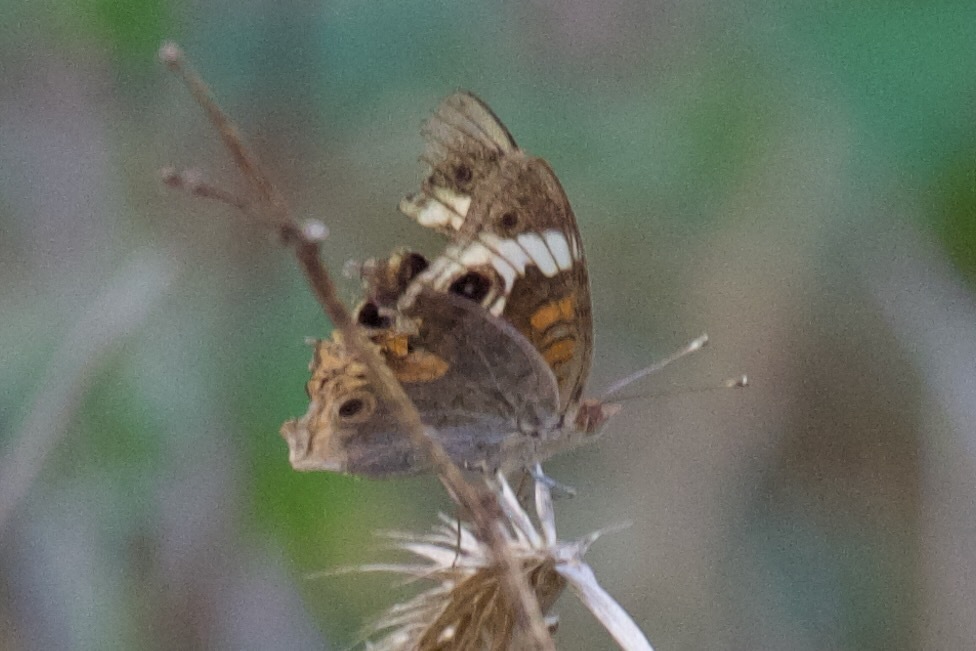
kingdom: Animalia
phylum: Arthropoda
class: Insecta
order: Lepidoptera
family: Nymphalidae
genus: Junonia
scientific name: Junonia coenia
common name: Common buckeye
